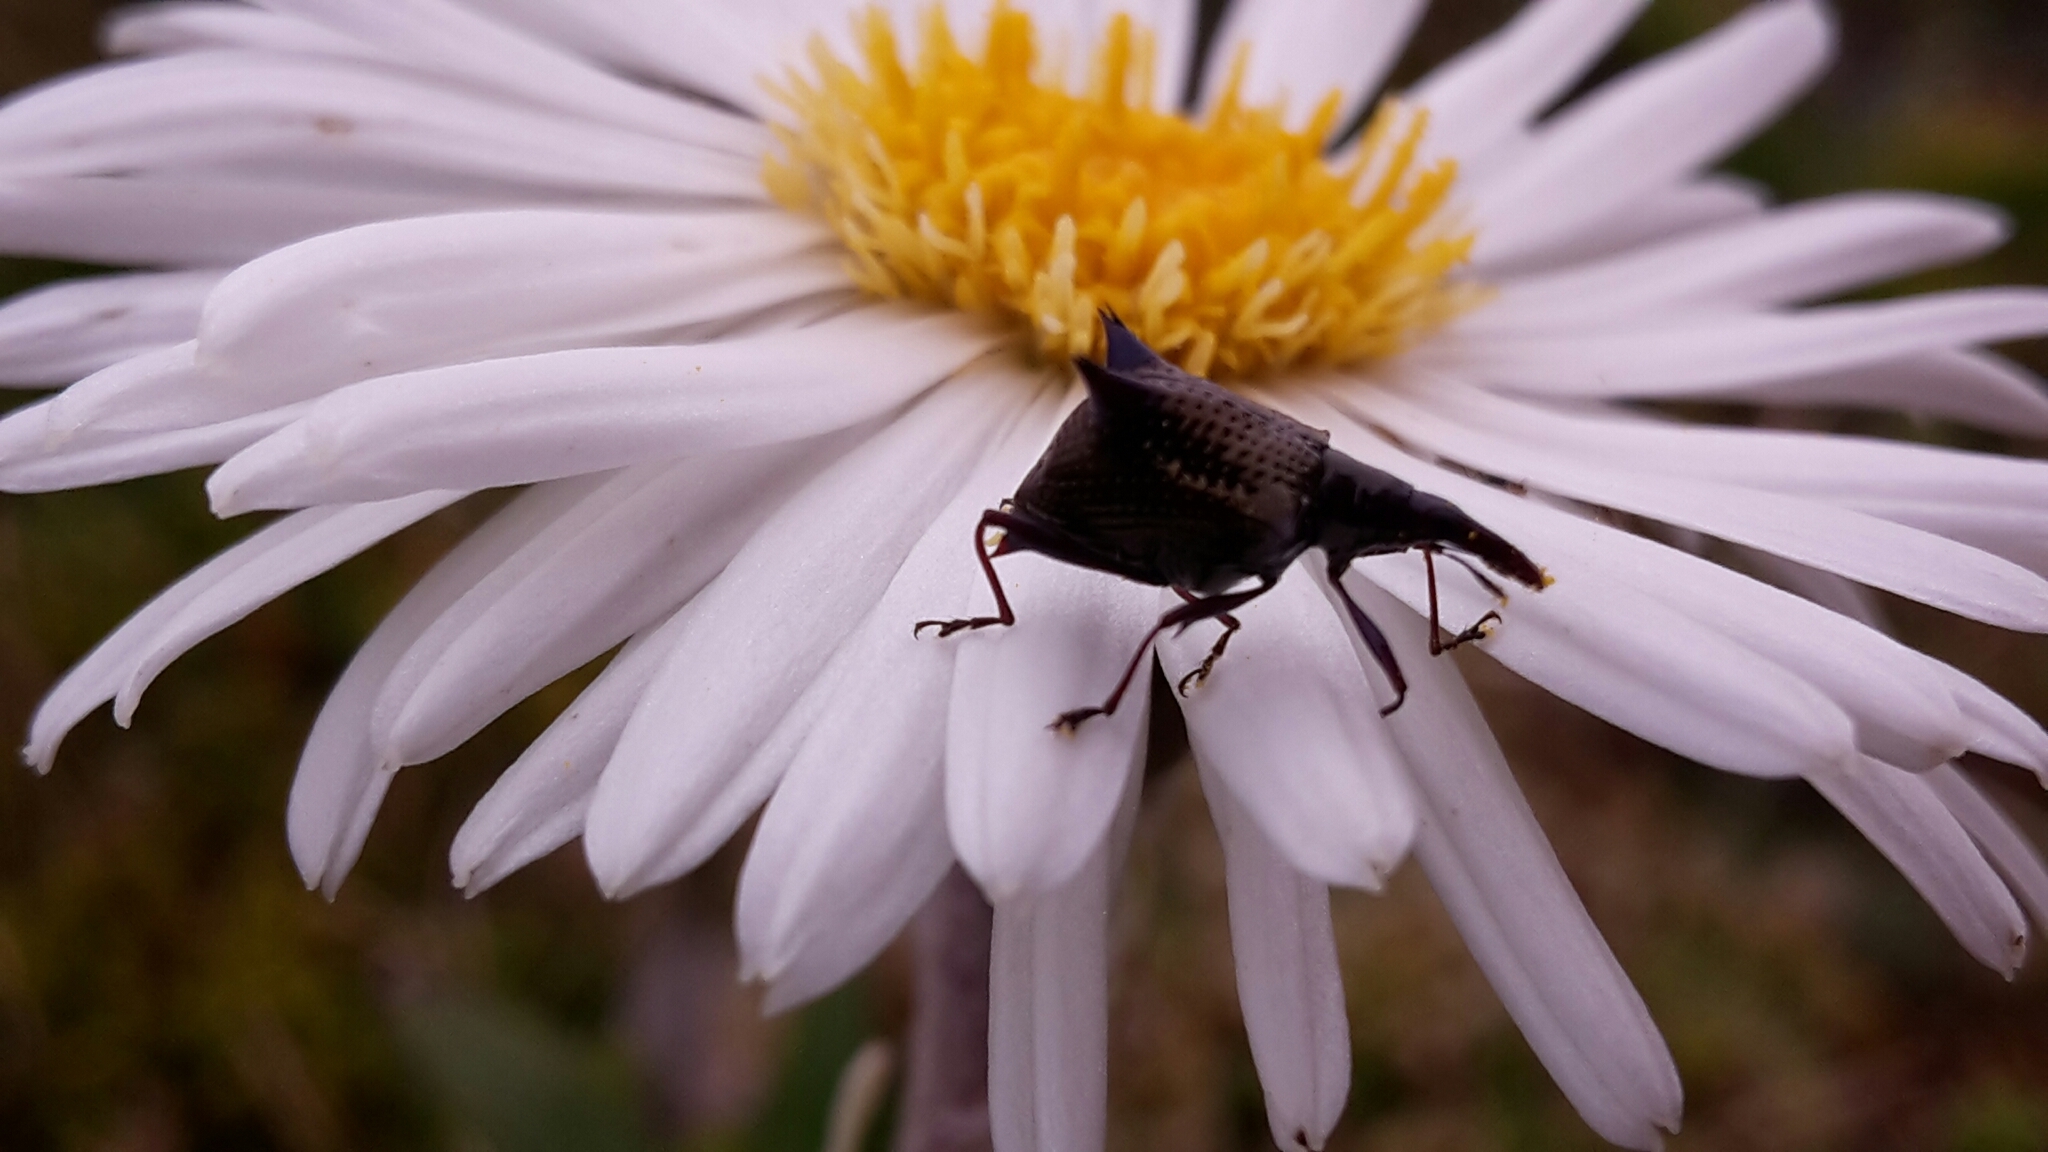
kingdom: Animalia
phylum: Arthropoda
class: Insecta
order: Coleoptera
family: Curculionidae
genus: Scolopterus
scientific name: Scolopterus aequus
